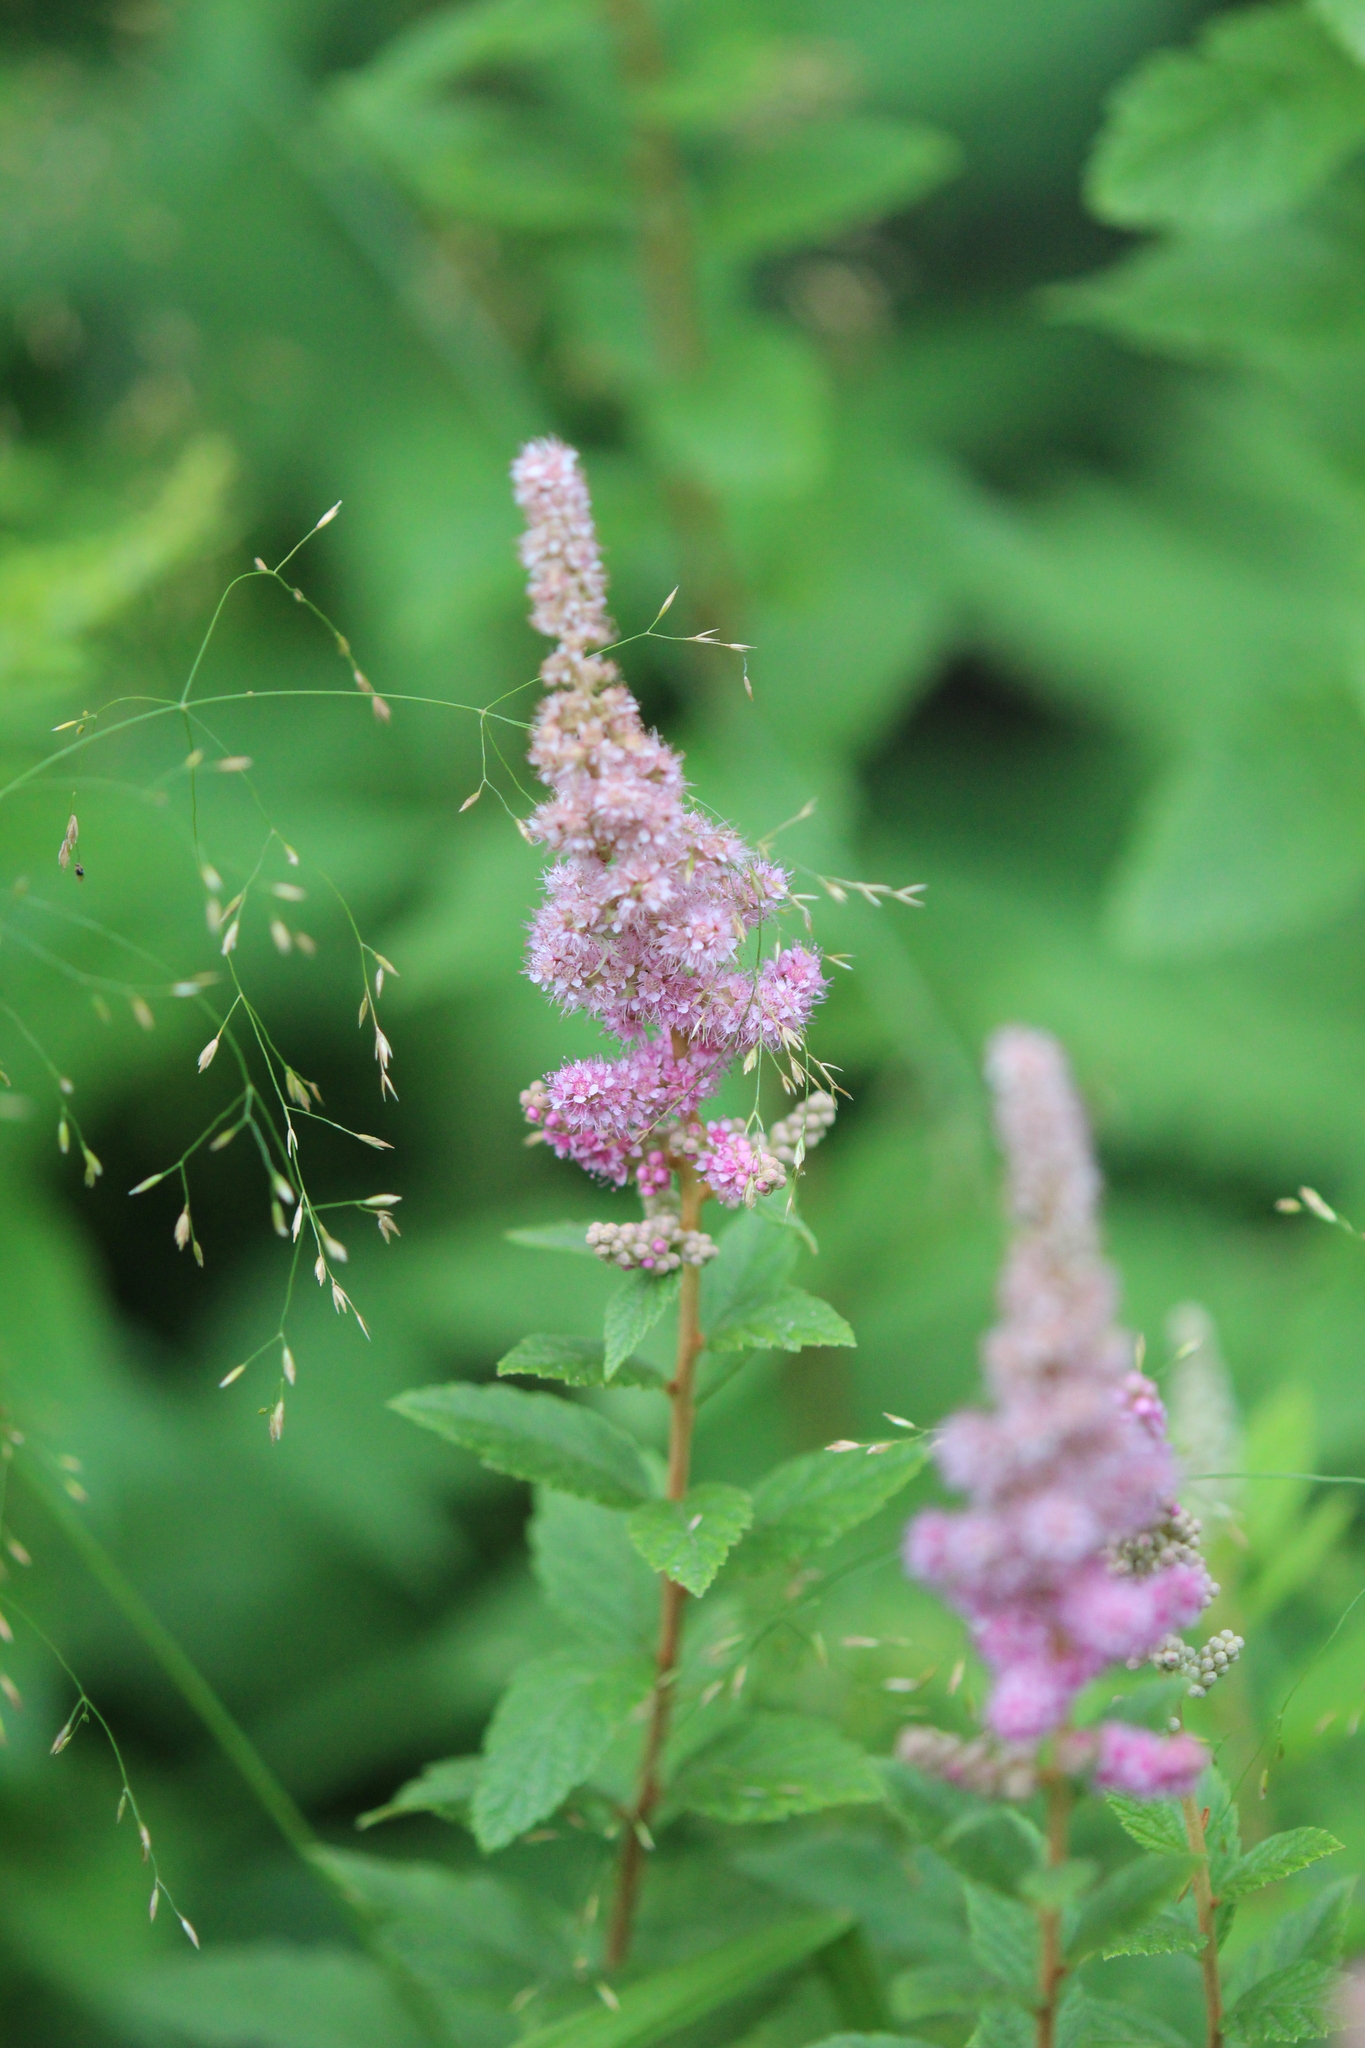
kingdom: Plantae
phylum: Tracheophyta
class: Magnoliopsida
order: Rosales
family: Rosaceae
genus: Spiraea
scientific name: Spiraea tomentosa
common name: Hardhack
